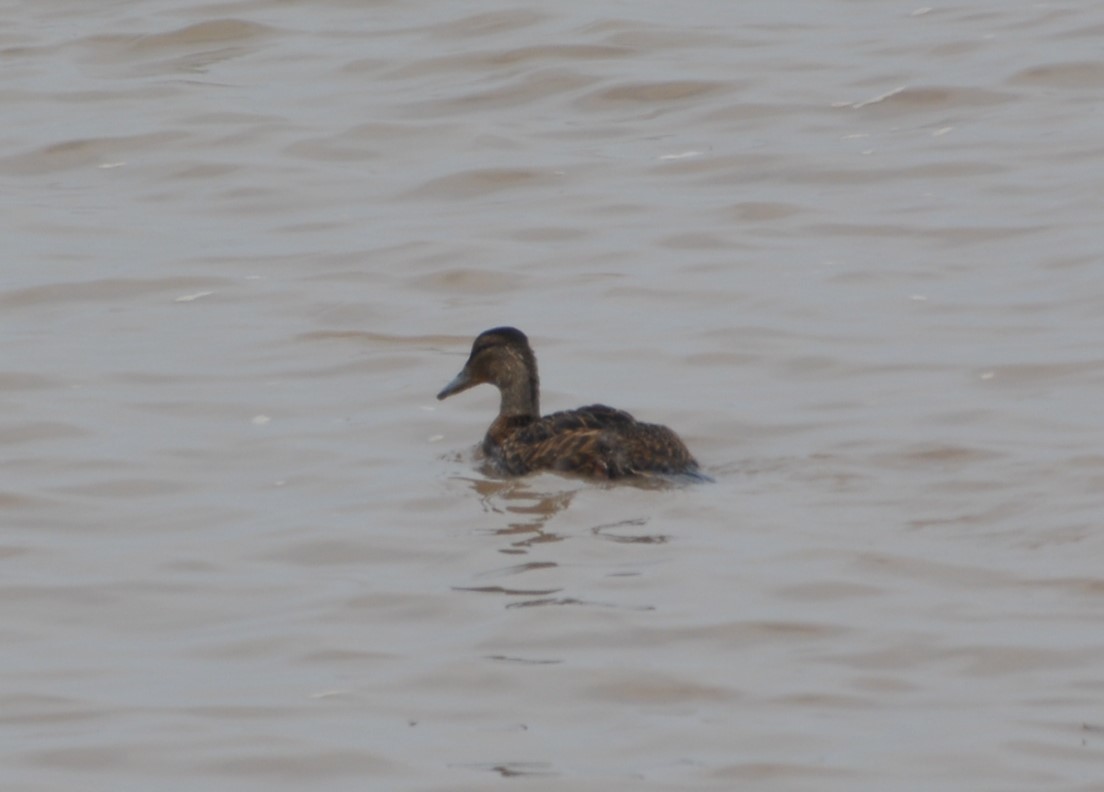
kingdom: Animalia
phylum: Chordata
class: Aves
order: Anseriformes
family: Anatidae
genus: Anas
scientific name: Anas platyrhynchos
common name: Mallard
